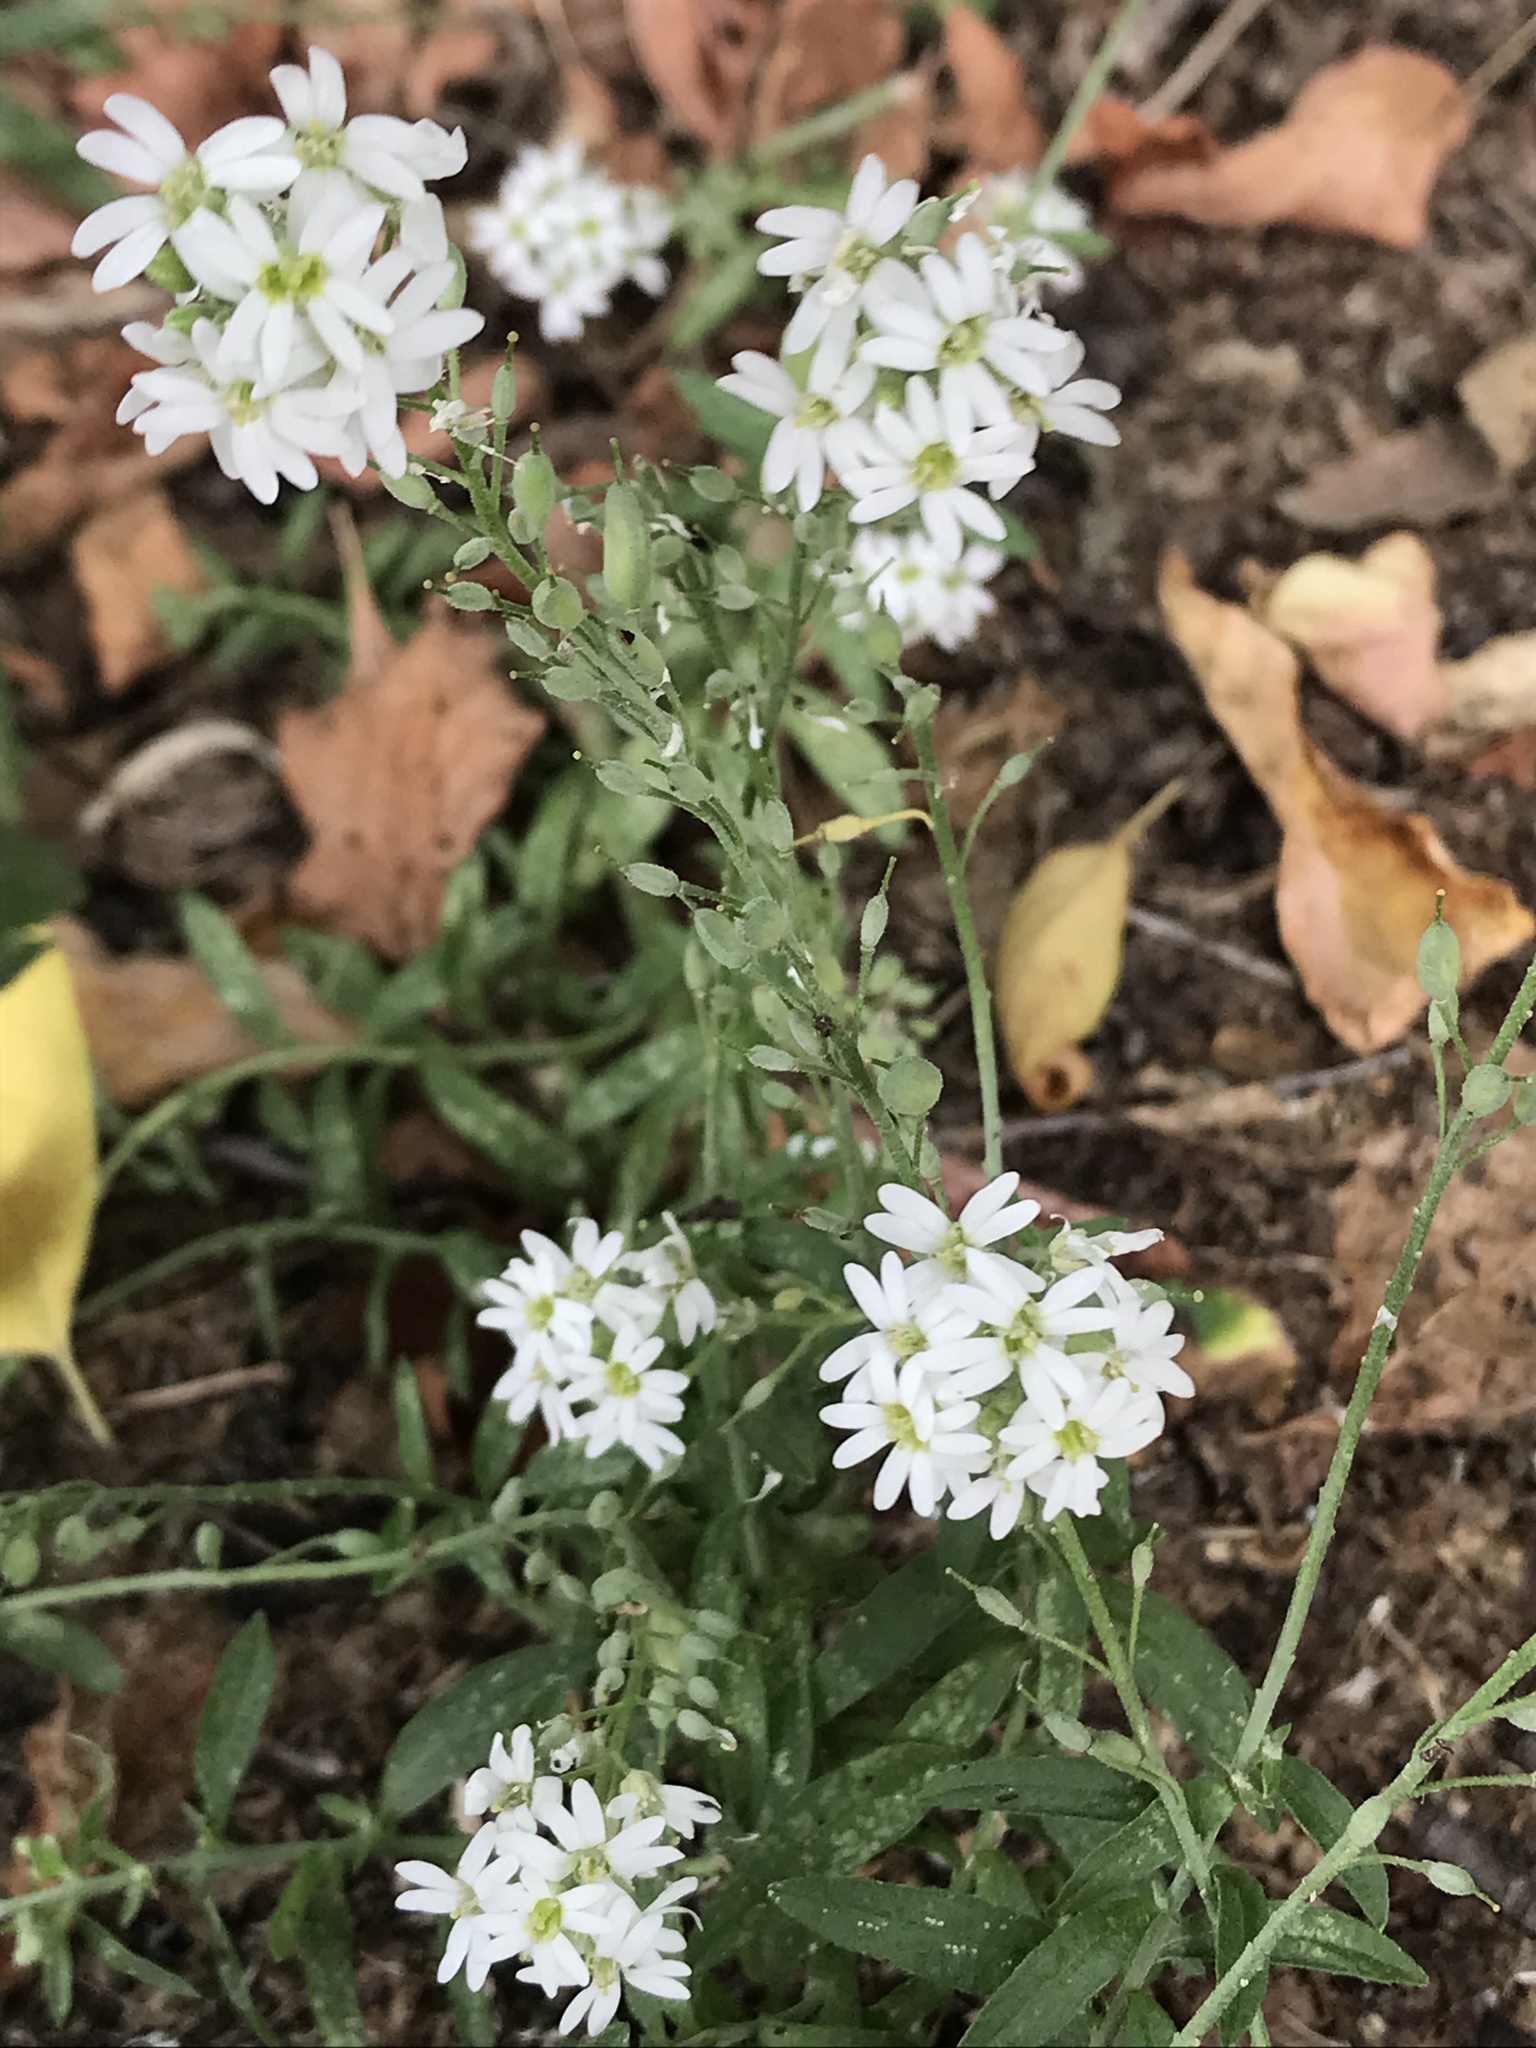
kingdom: Plantae
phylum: Tracheophyta
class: Magnoliopsida
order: Brassicales
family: Brassicaceae
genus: Berteroa
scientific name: Berteroa incana
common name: Hoary alison
